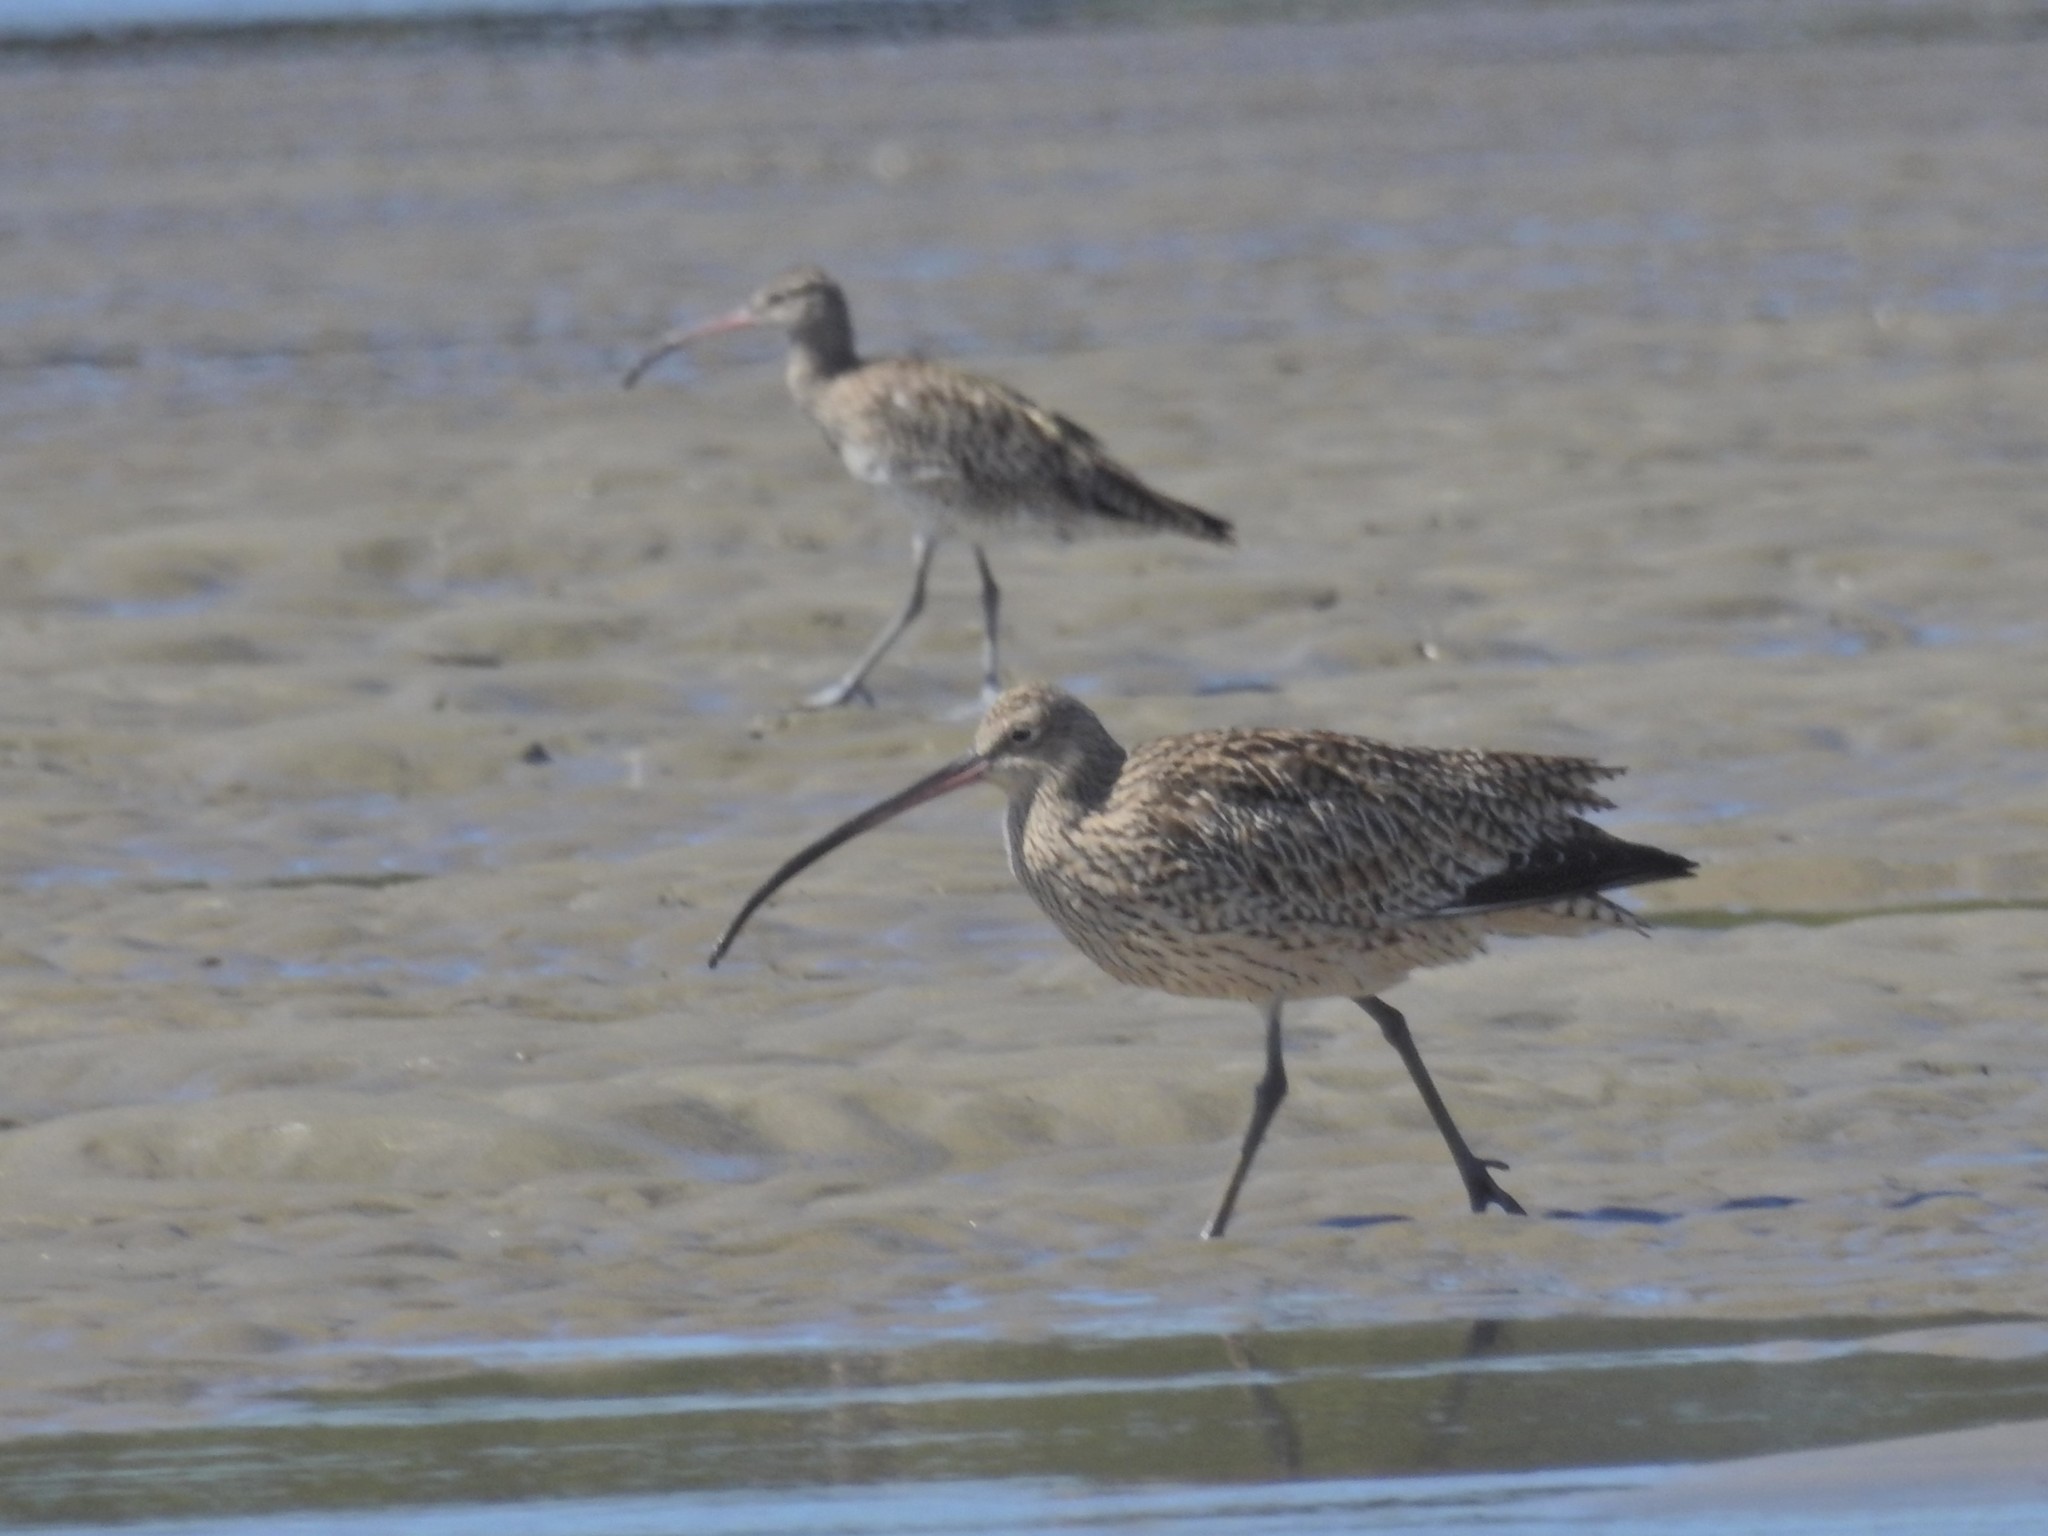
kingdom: Animalia
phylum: Chordata
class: Aves
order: Charadriiformes
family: Scolopacidae
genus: Numenius
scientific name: Numenius madagascariensis
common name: Far eastern curlew
